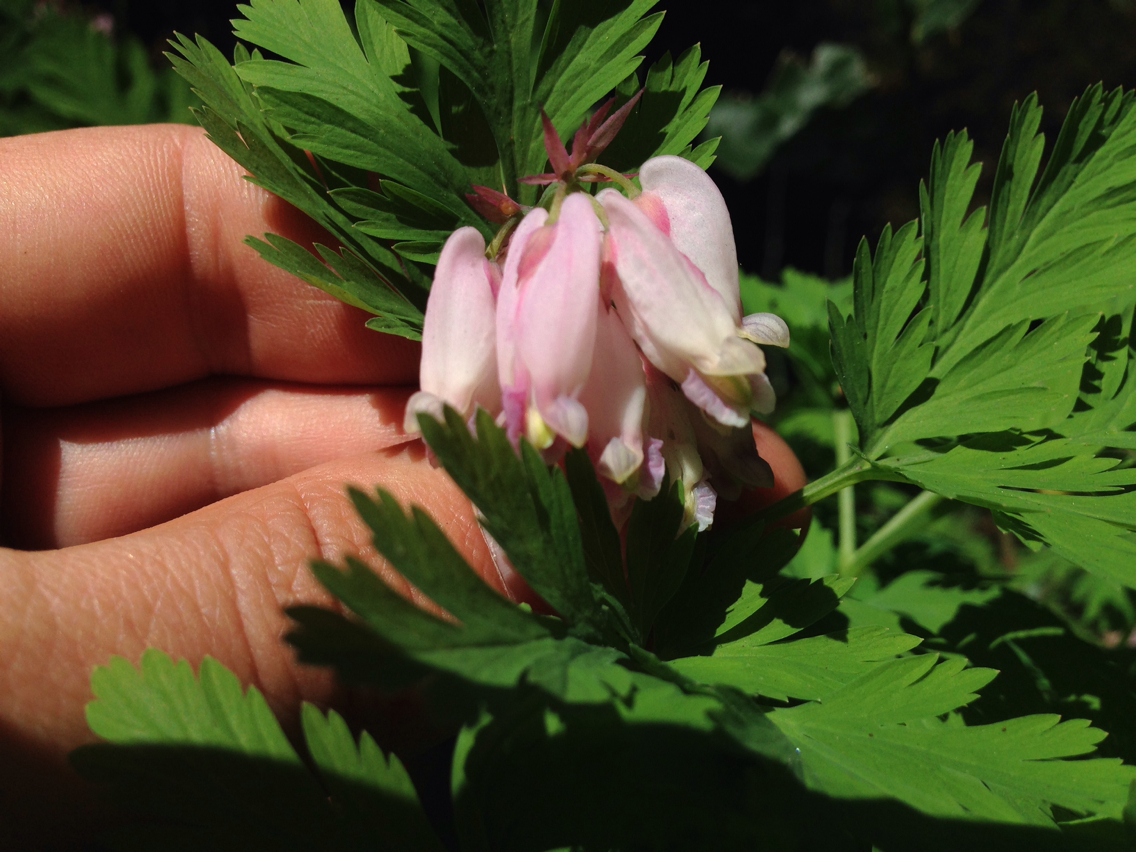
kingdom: Plantae
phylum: Tracheophyta
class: Magnoliopsida
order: Ranunculales
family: Papaveraceae
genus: Dicentra
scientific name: Dicentra formosa
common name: Bleeding-heart
